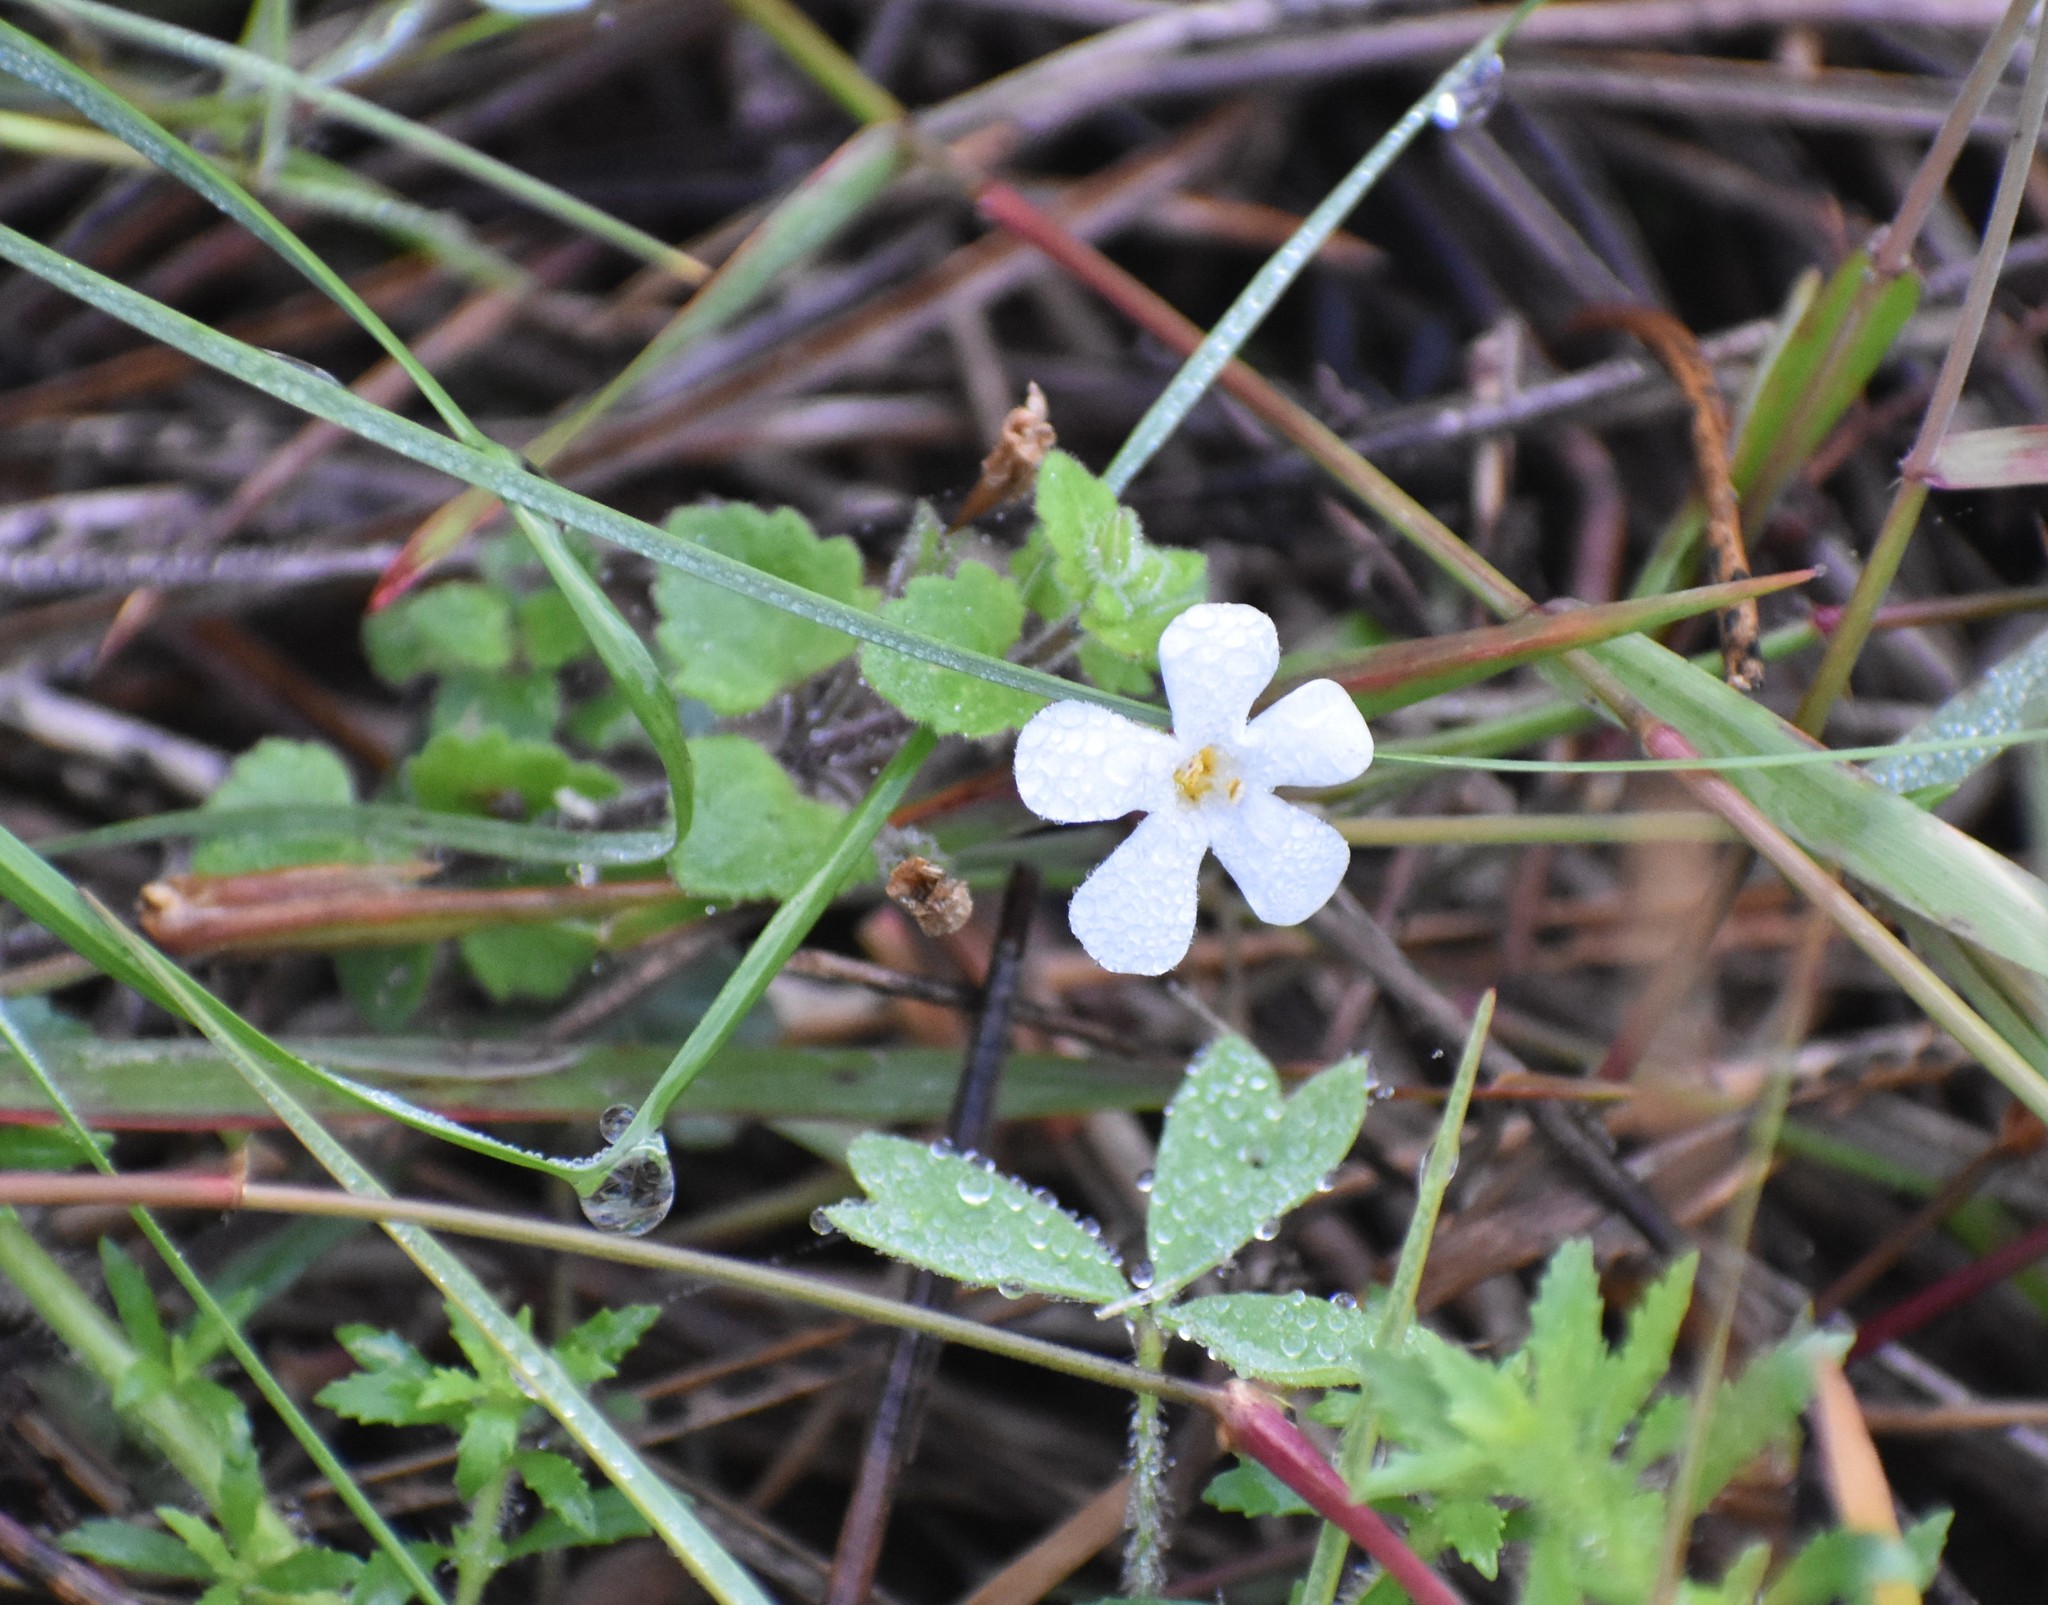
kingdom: Plantae
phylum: Tracheophyta
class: Magnoliopsida
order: Lamiales
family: Scrophulariaceae
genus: Chaenostoma
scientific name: Chaenostoma cordatum
